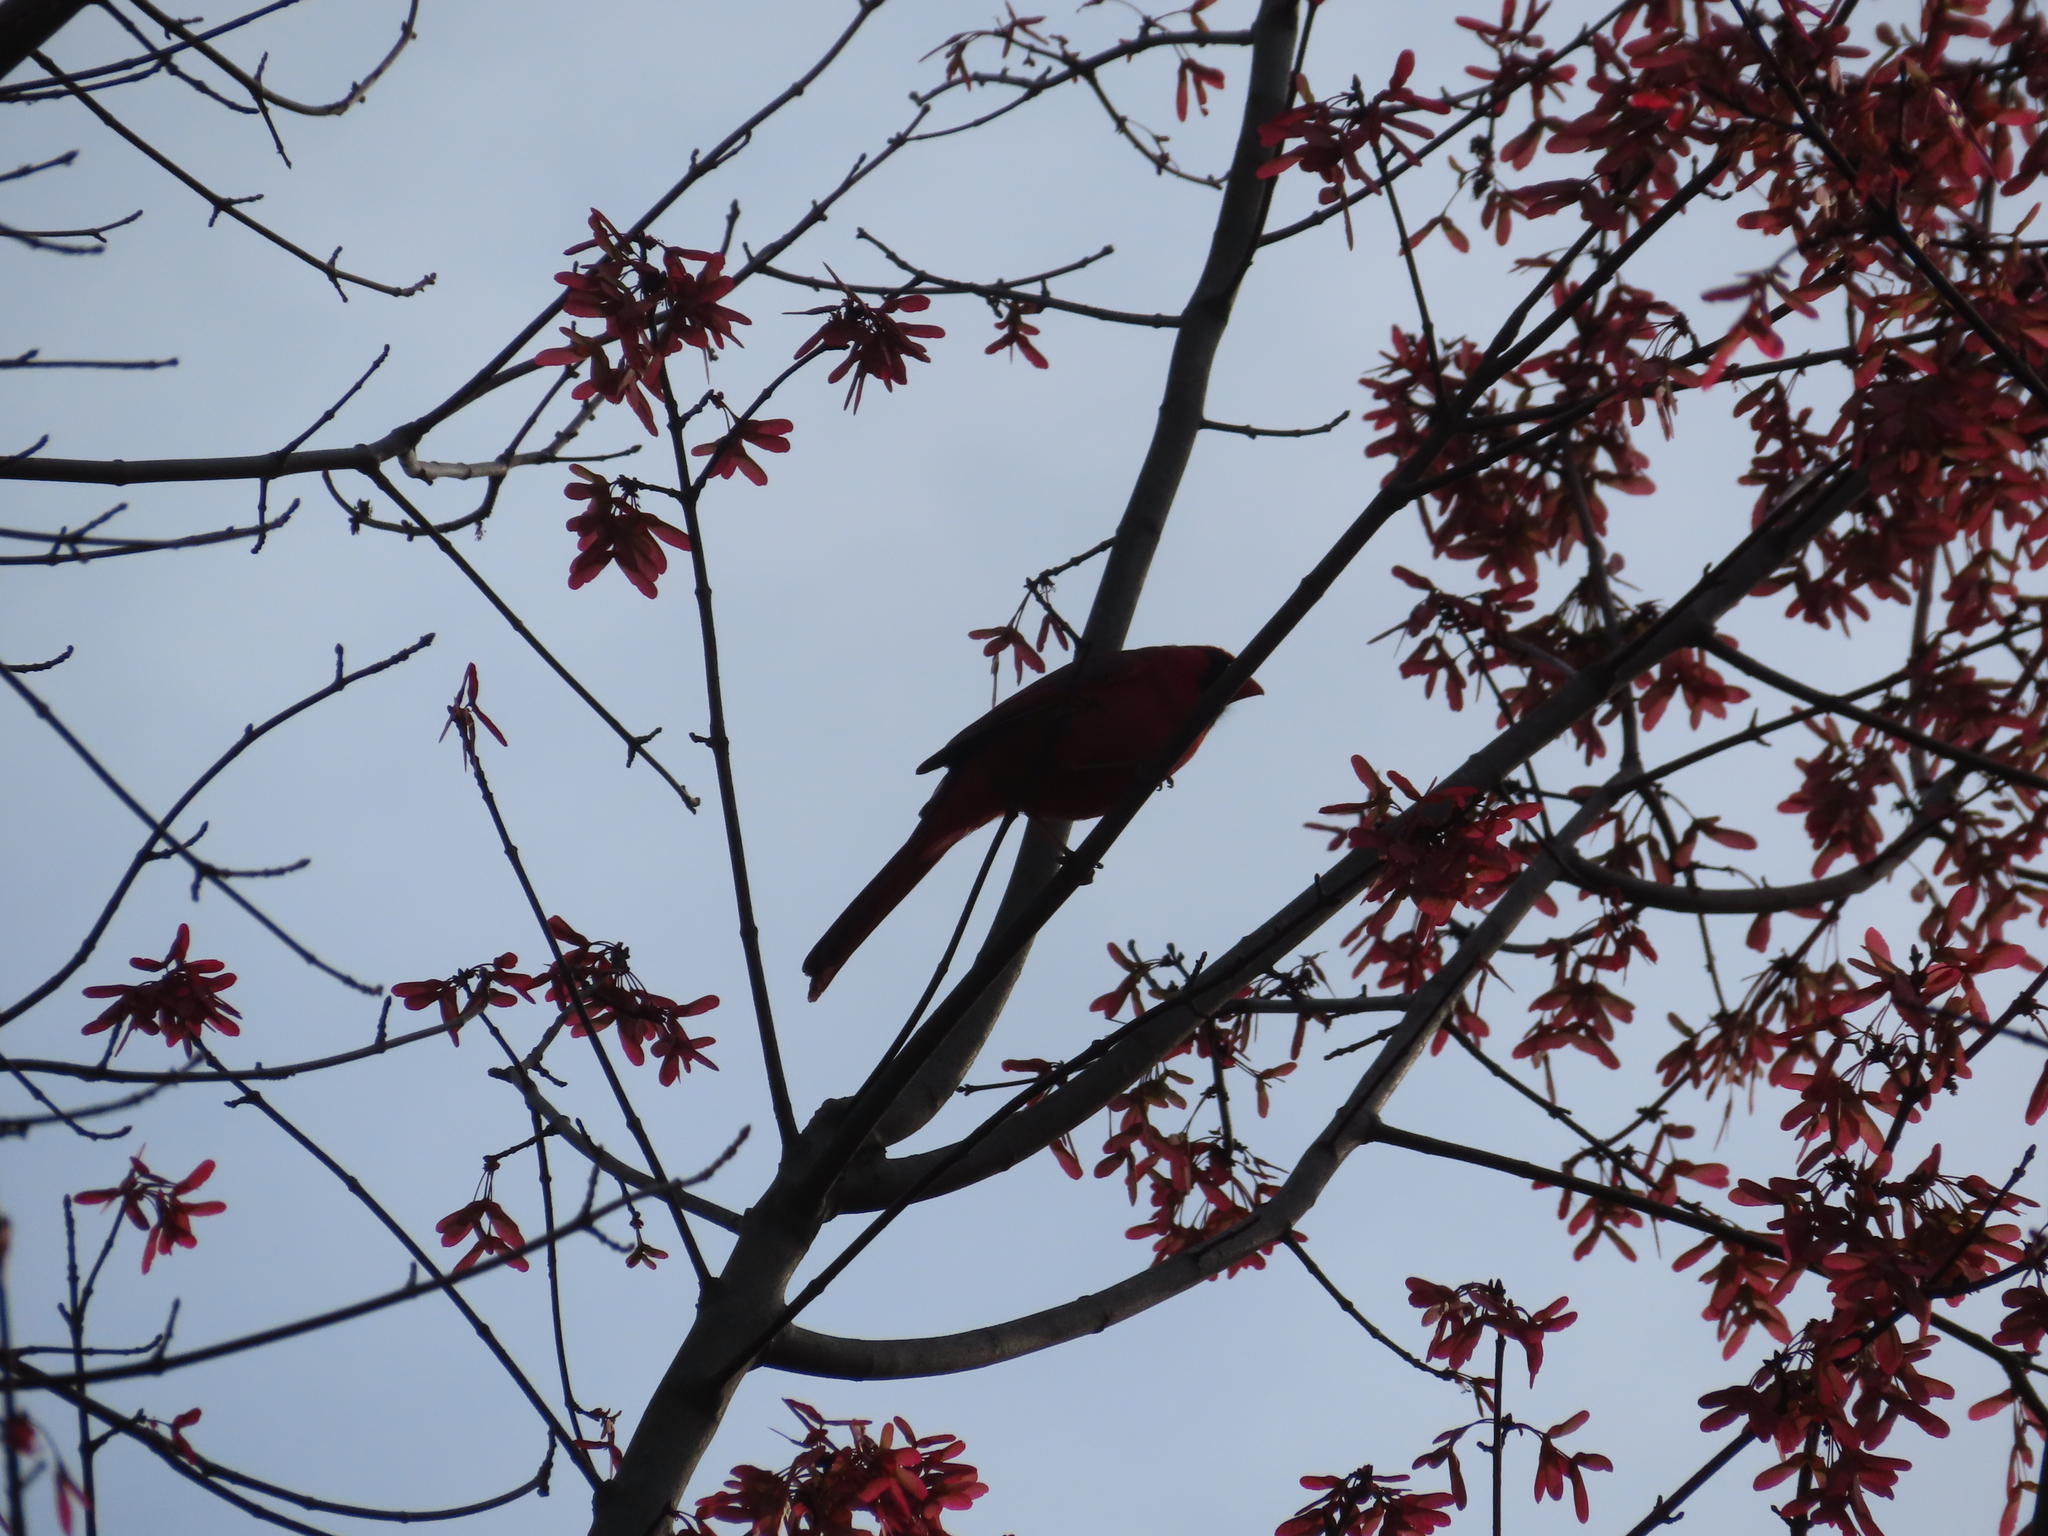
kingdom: Animalia
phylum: Chordata
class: Aves
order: Passeriformes
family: Cardinalidae
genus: Cardinalis
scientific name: Cardinalis cardinalis
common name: Northern cardinal
